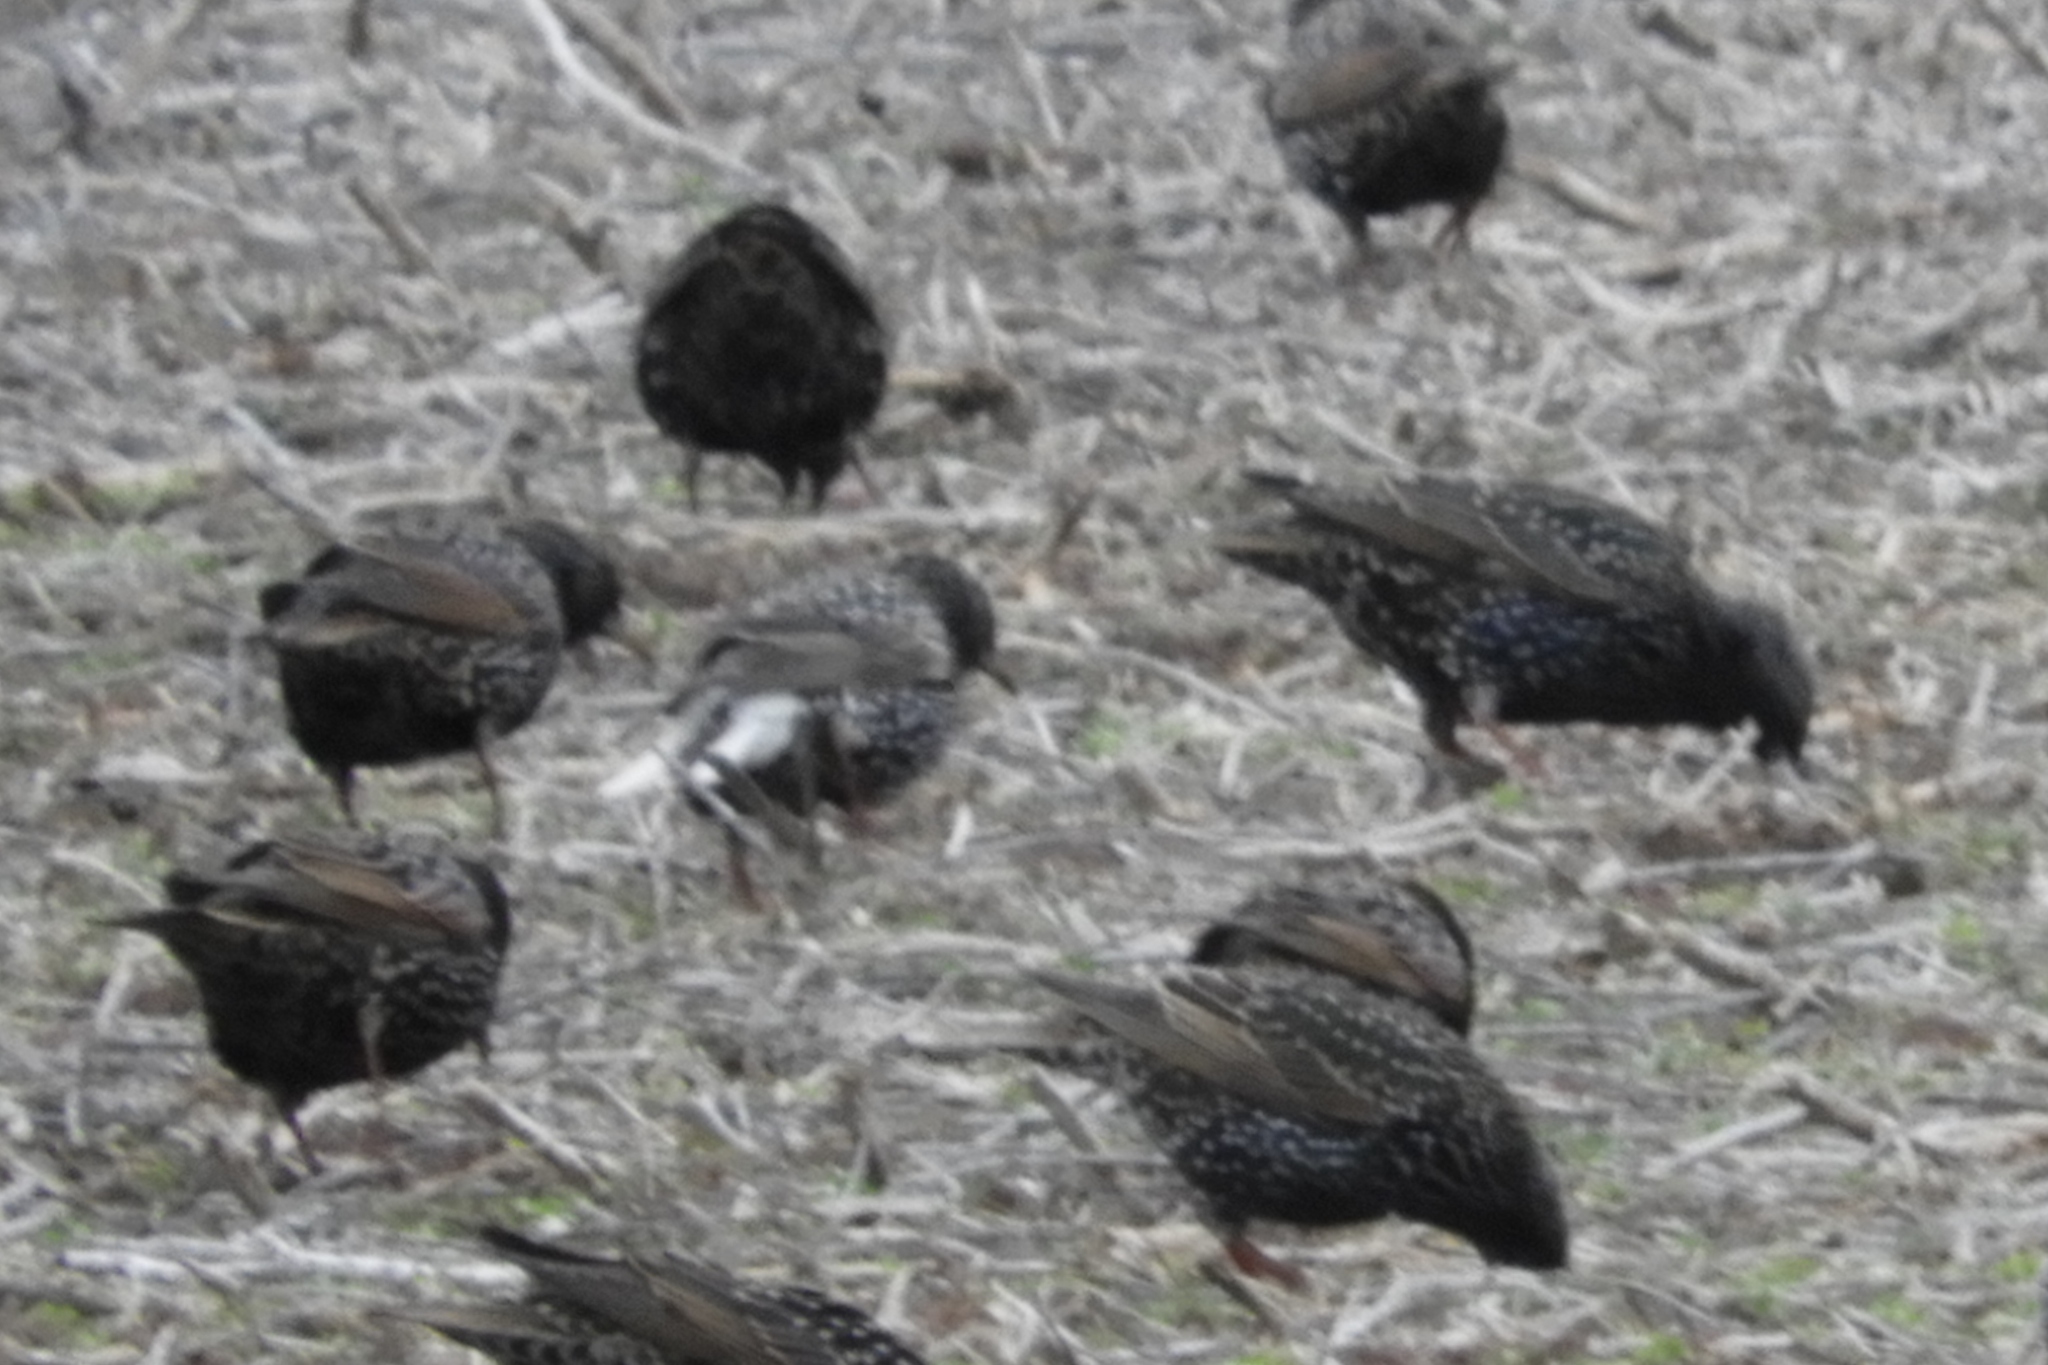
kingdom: Animalia
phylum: Chordata
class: Aves
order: Passeriformes
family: Sturnidae
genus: Sturnus
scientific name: Sturnus vulgaris
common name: Common starling
